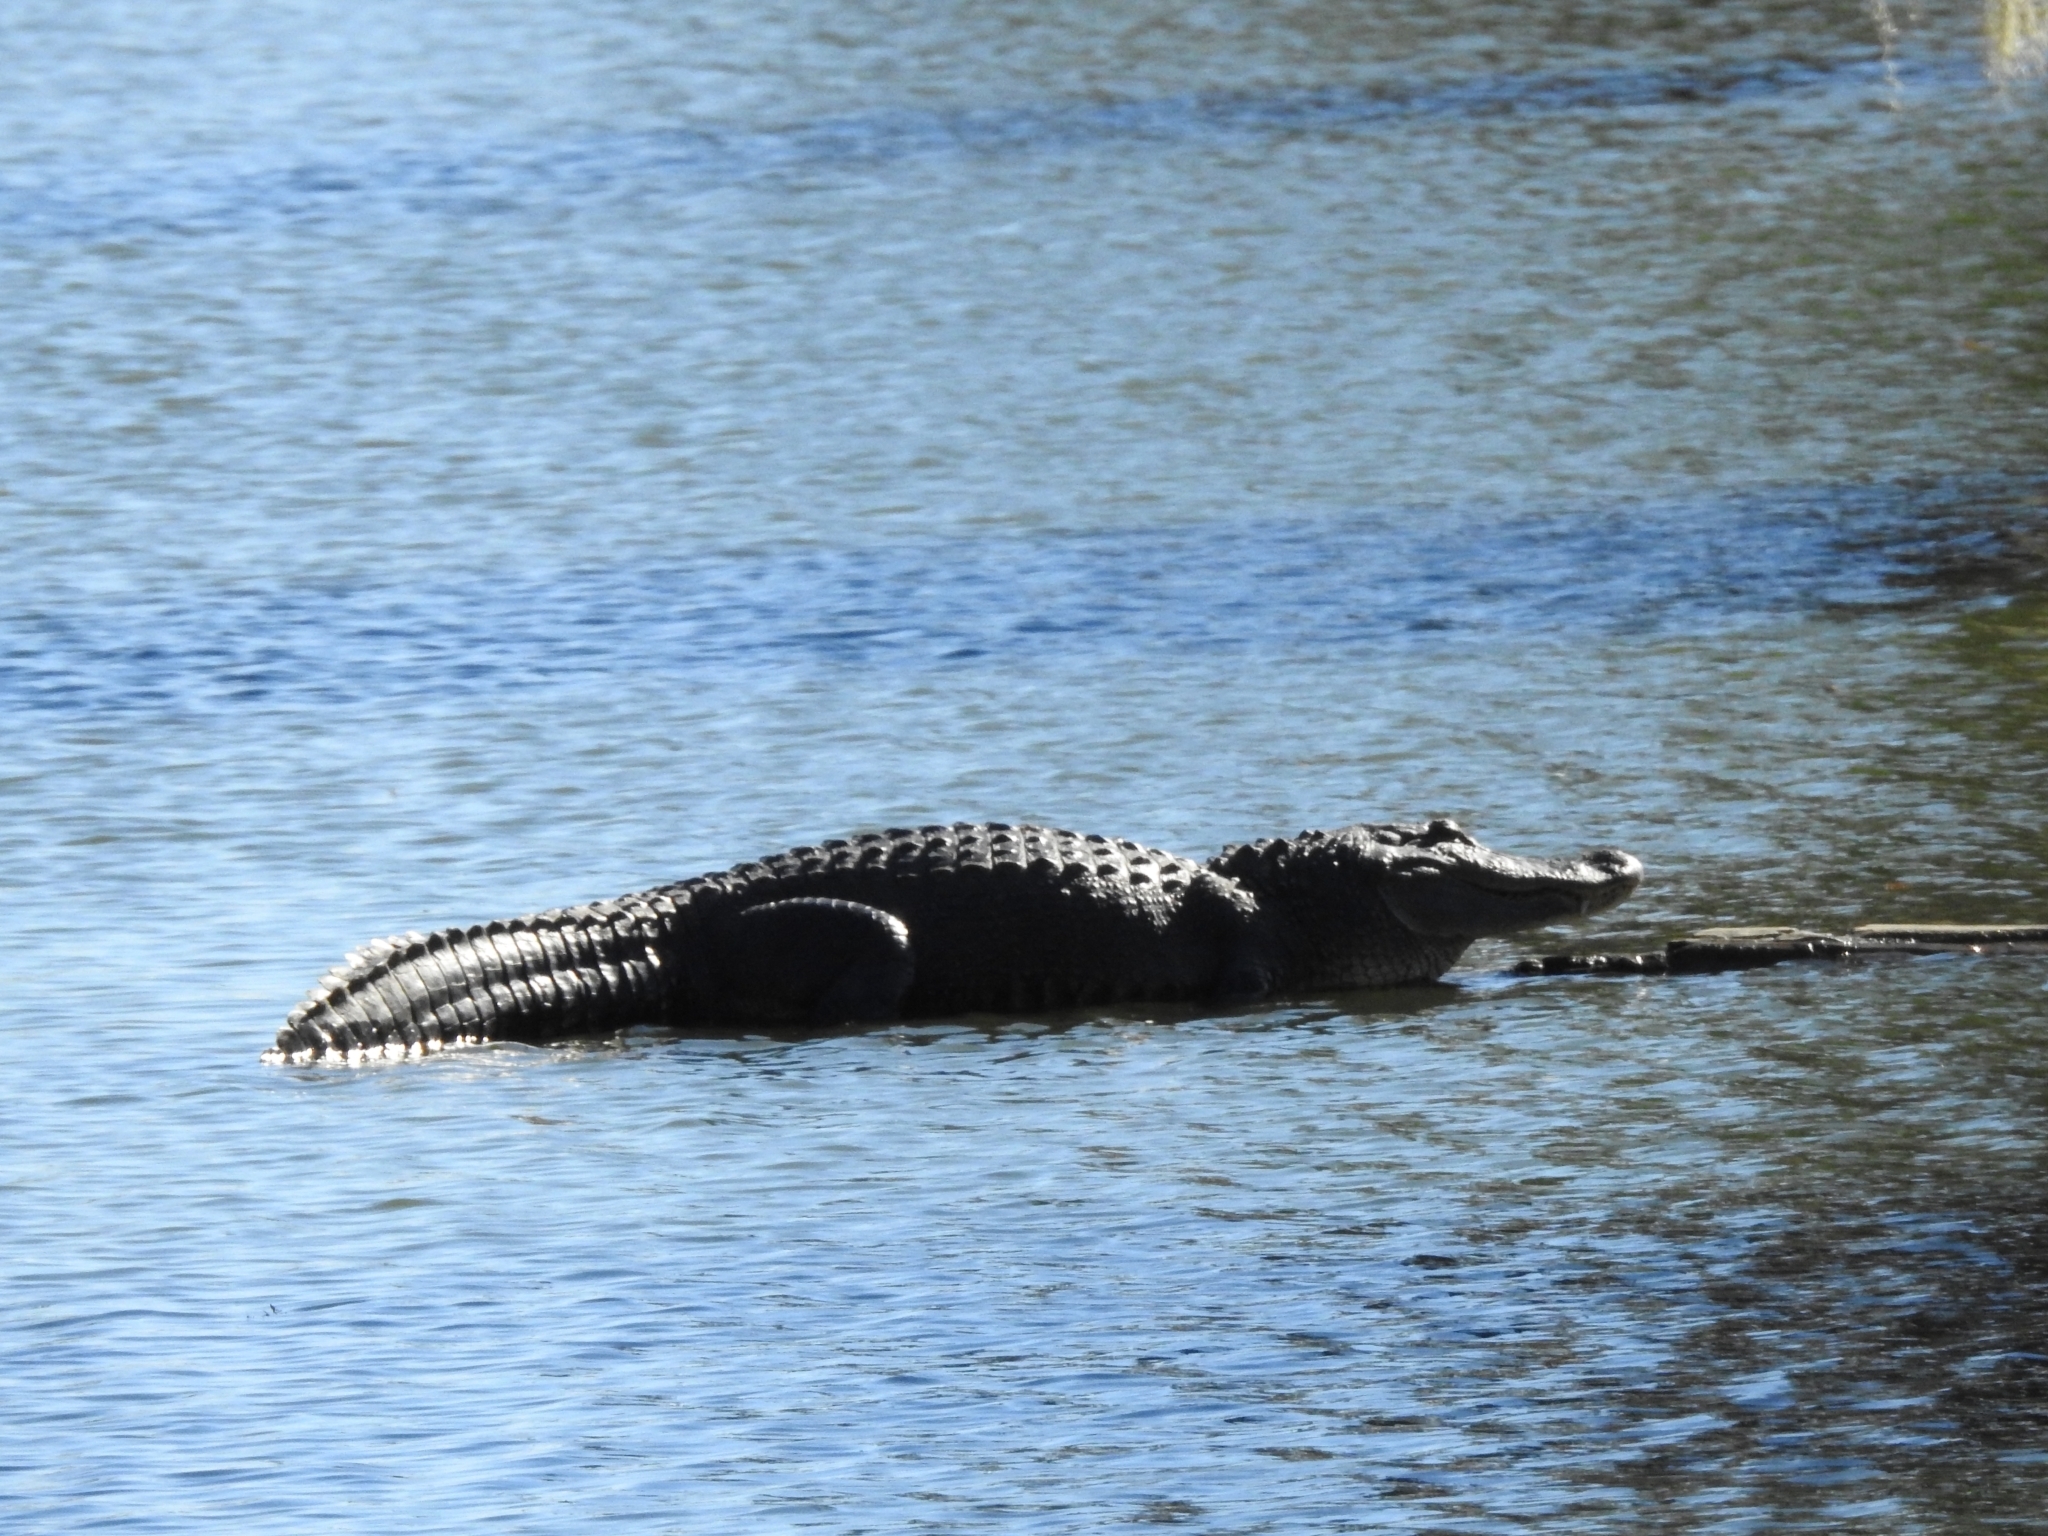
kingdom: Animalia
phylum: Chordata
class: Crocodylia
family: Alligatoridae
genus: Alligator
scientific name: Alligator mississippiensis
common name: American alligator
